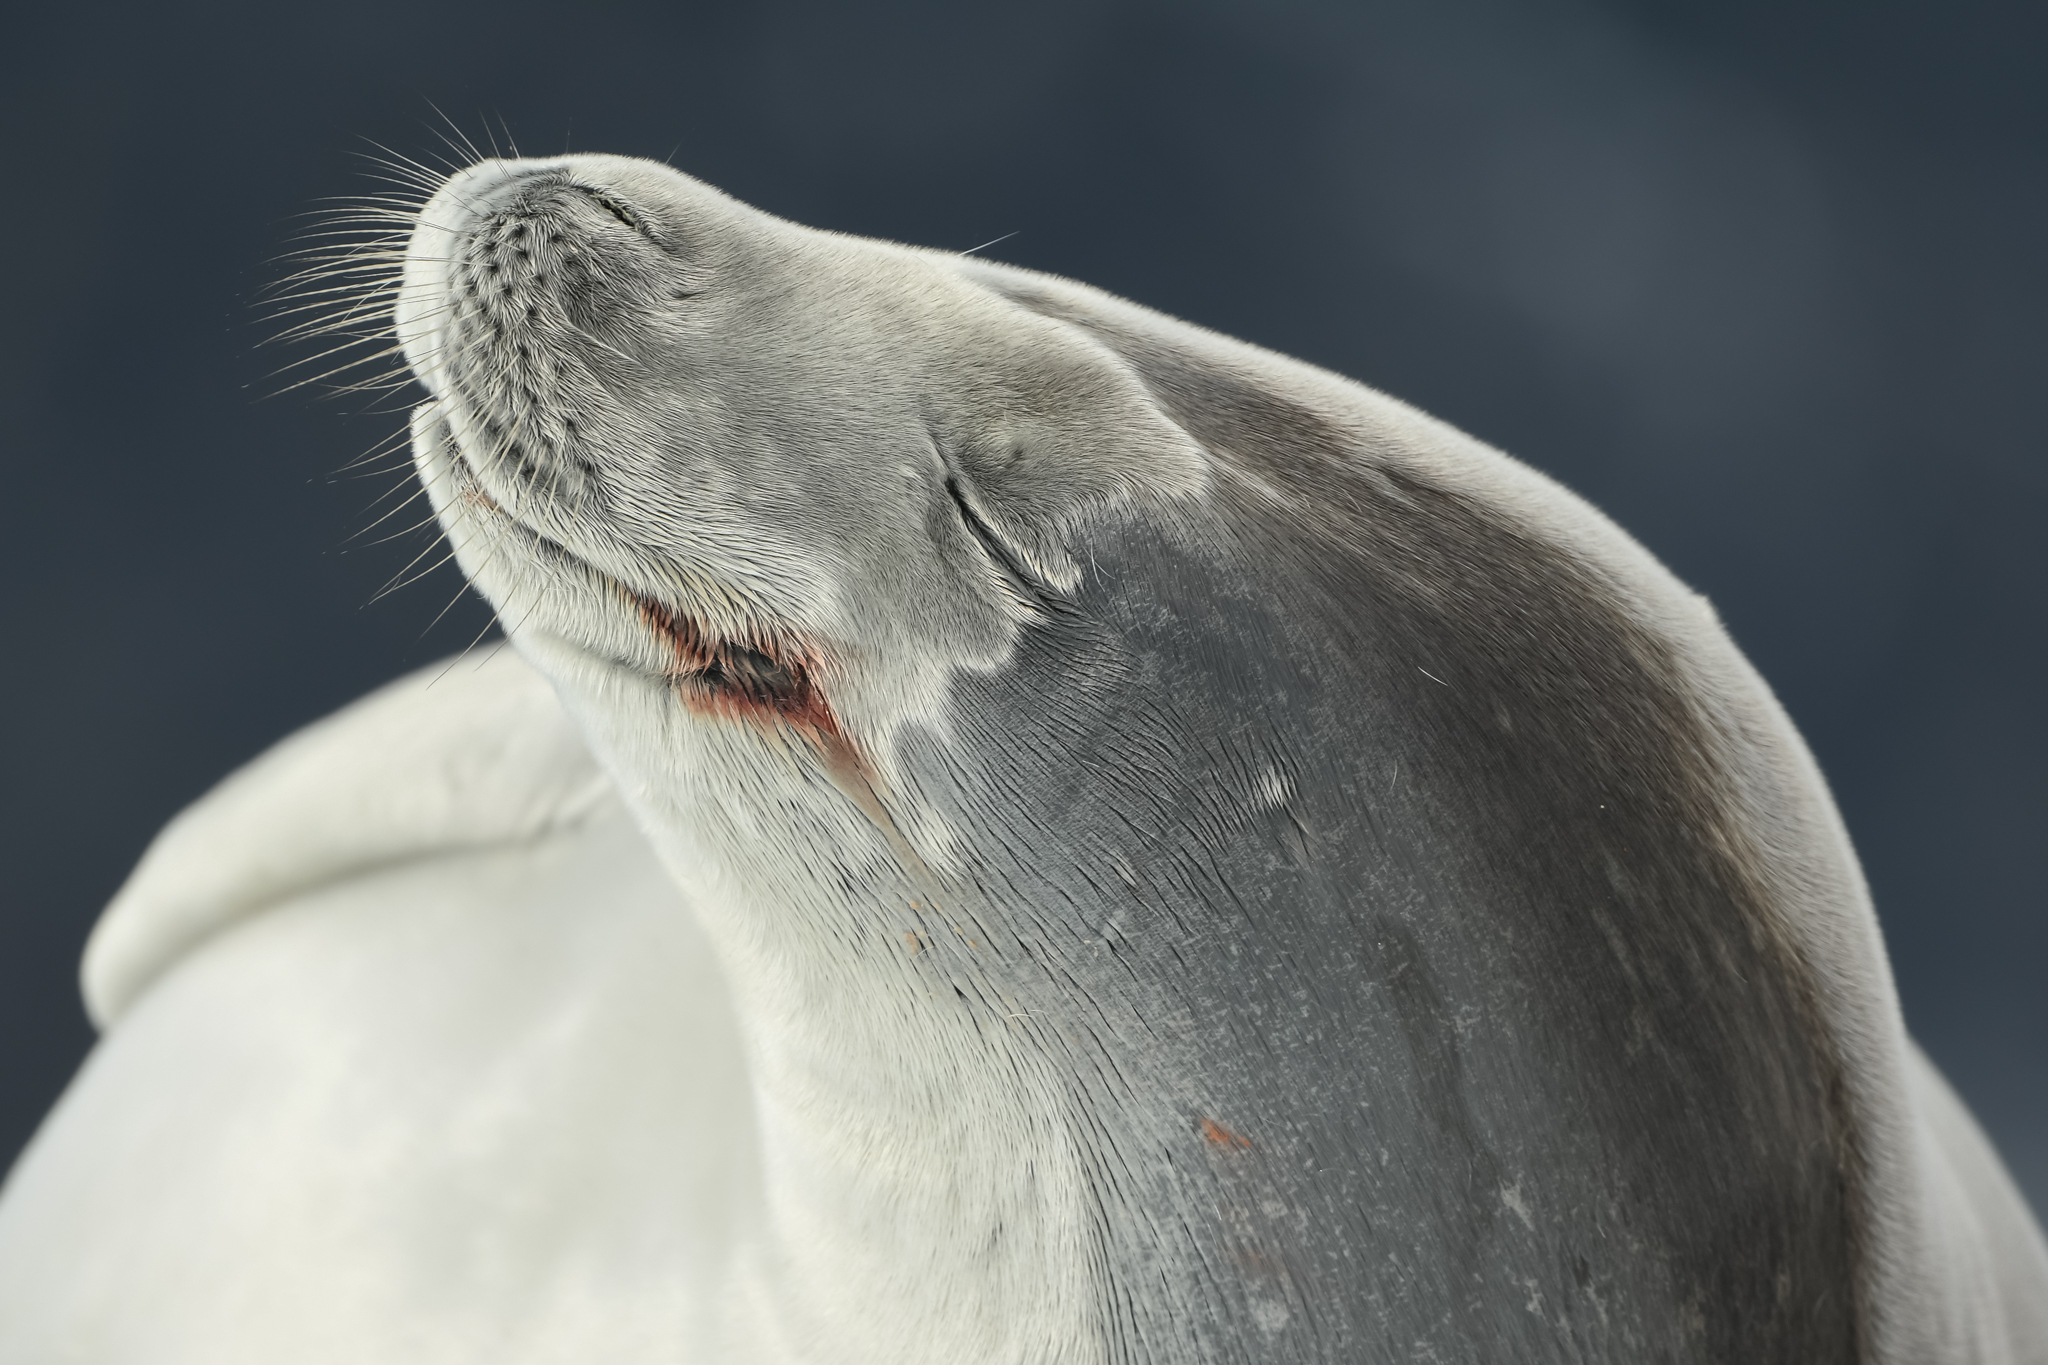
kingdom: Animalia
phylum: Chordata
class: Mammalia
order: Carnivora
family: Phocidae
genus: Lobodon
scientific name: Lobodon carcinophaga
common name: Crabeater seal
